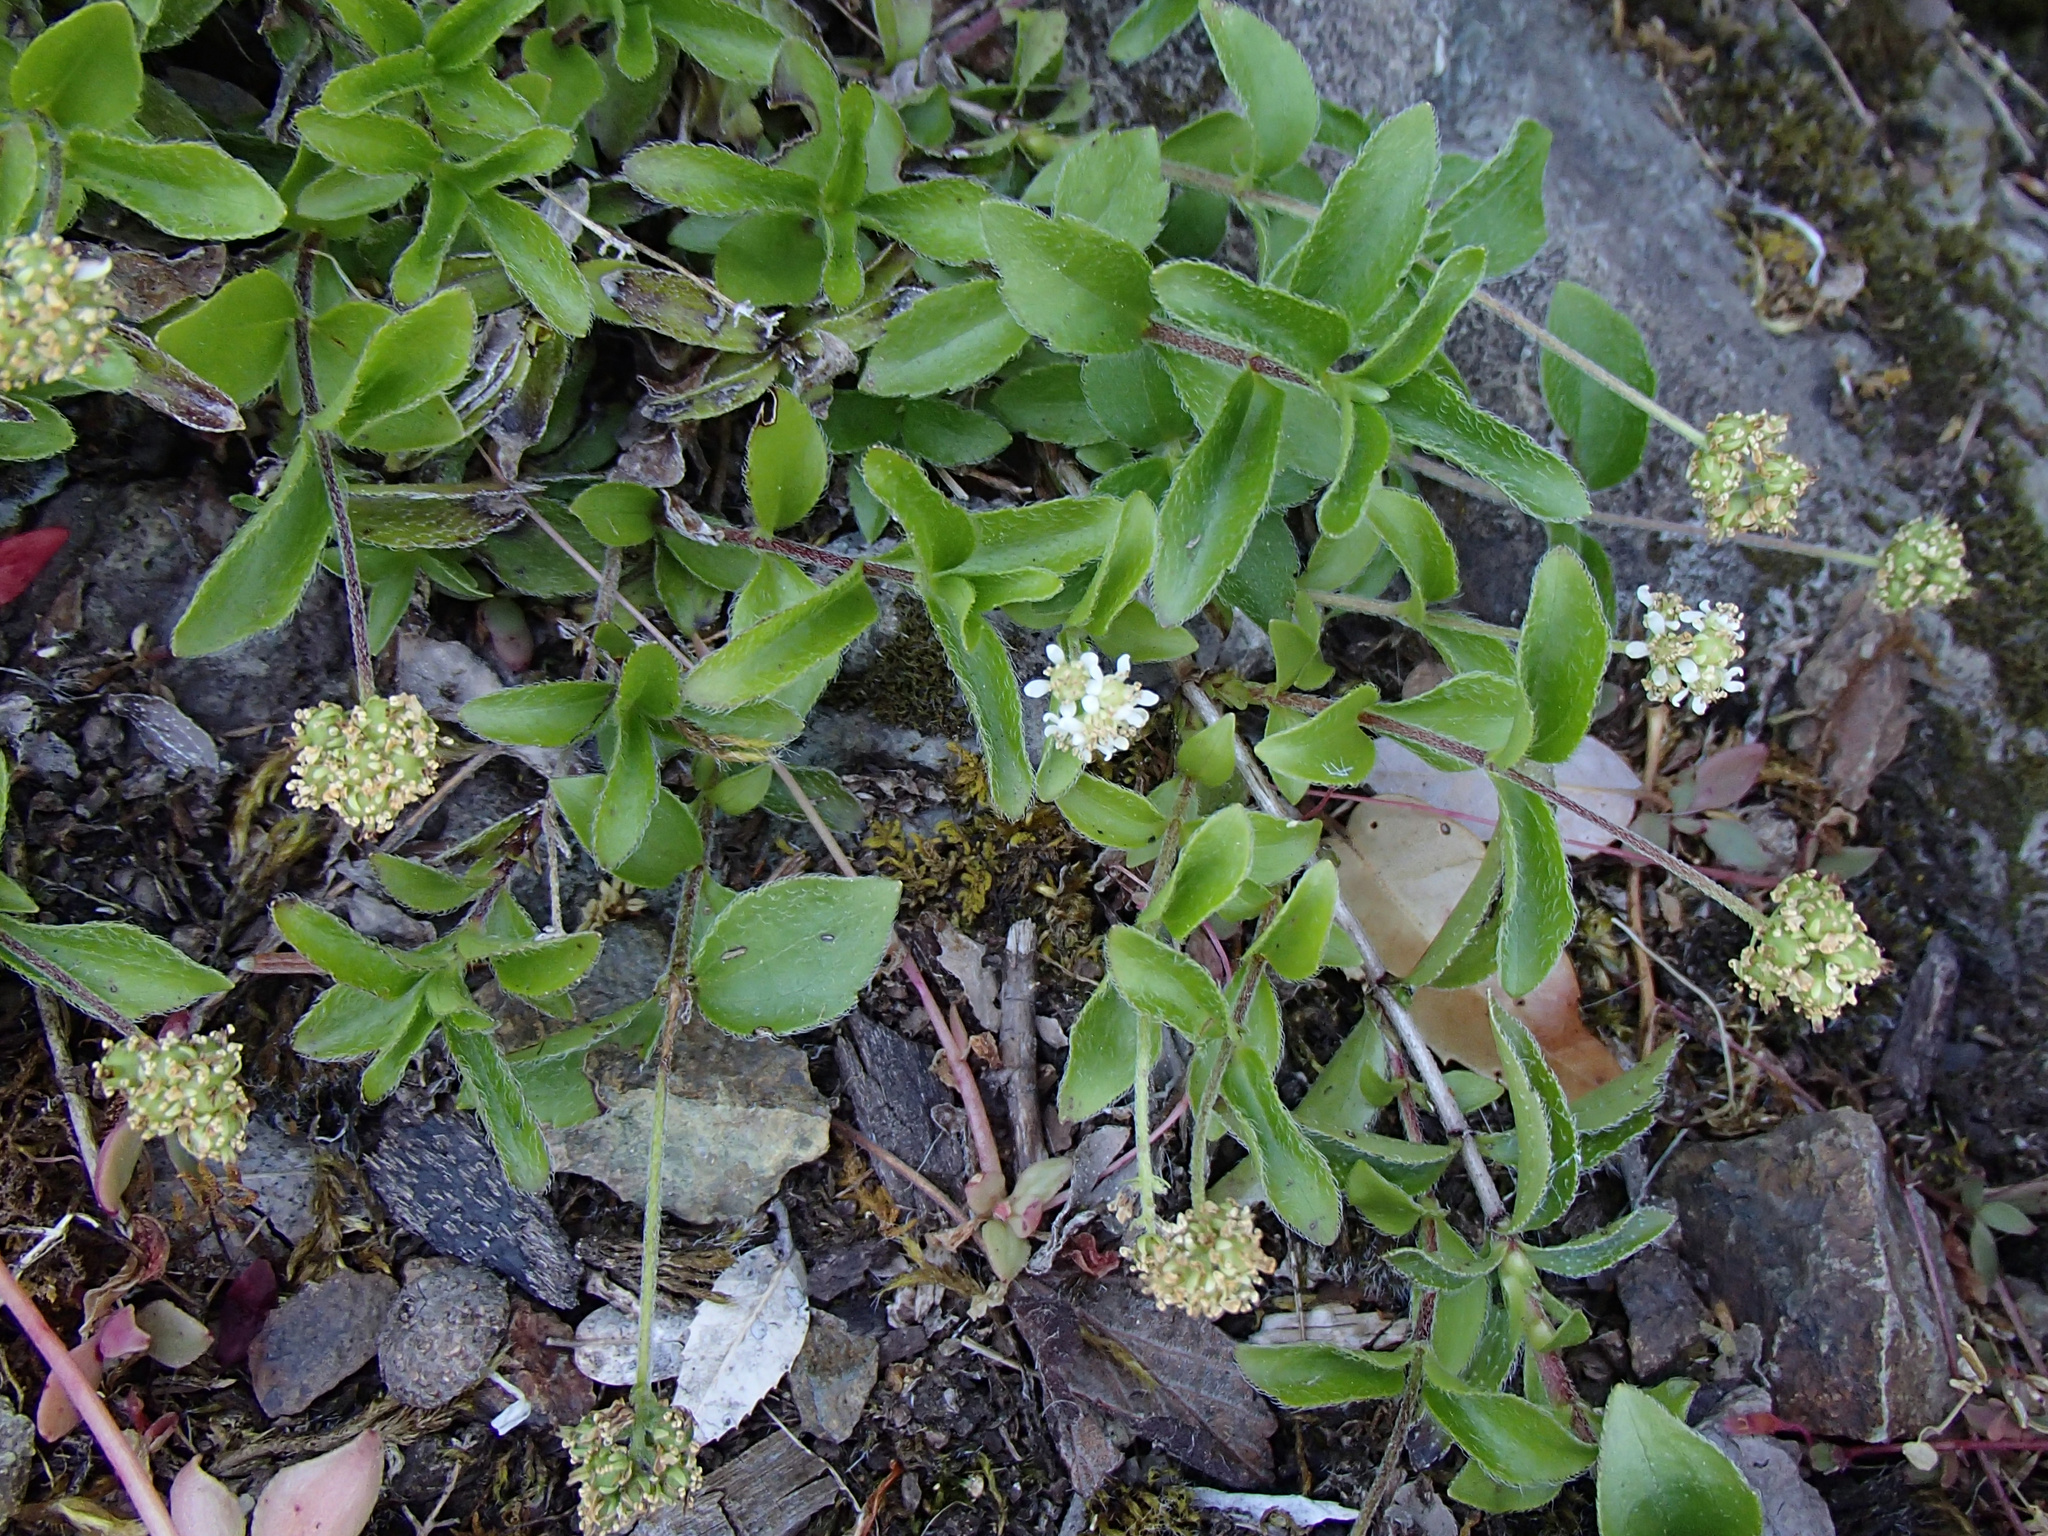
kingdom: Plantae
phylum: Tracheophyta
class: Magnoliopsida
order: Cornales
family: Hydrangeaceae
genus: Whipplea
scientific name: Whipplea modesta
